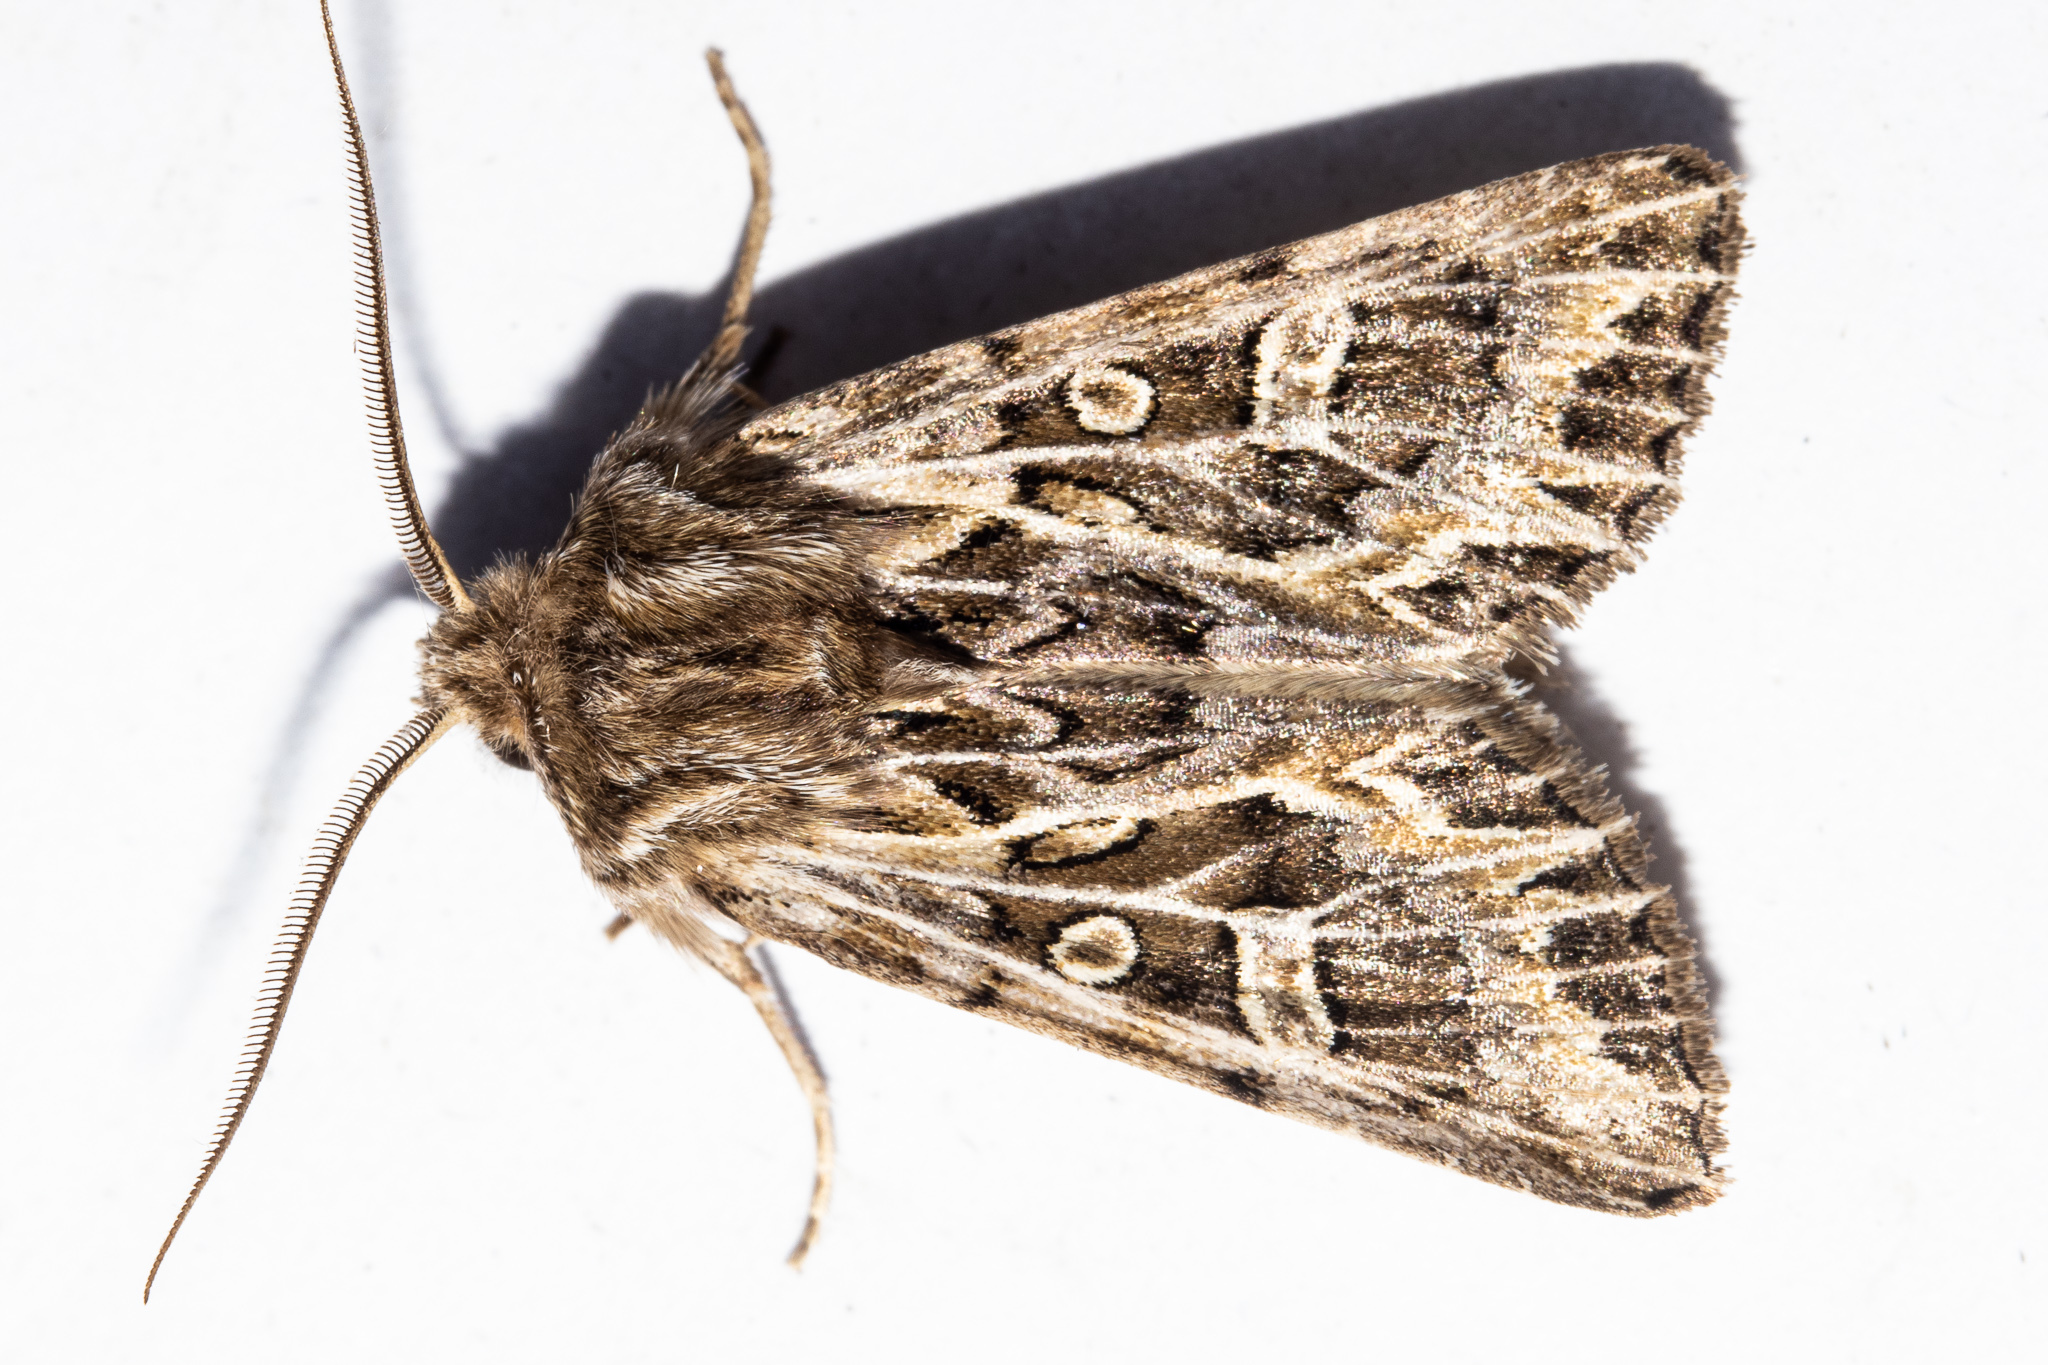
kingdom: Animalia
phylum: Arthropoda
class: Insecta
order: Lepidoptera
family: Noctuidae
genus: Ichneutica
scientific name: Ichneutica
